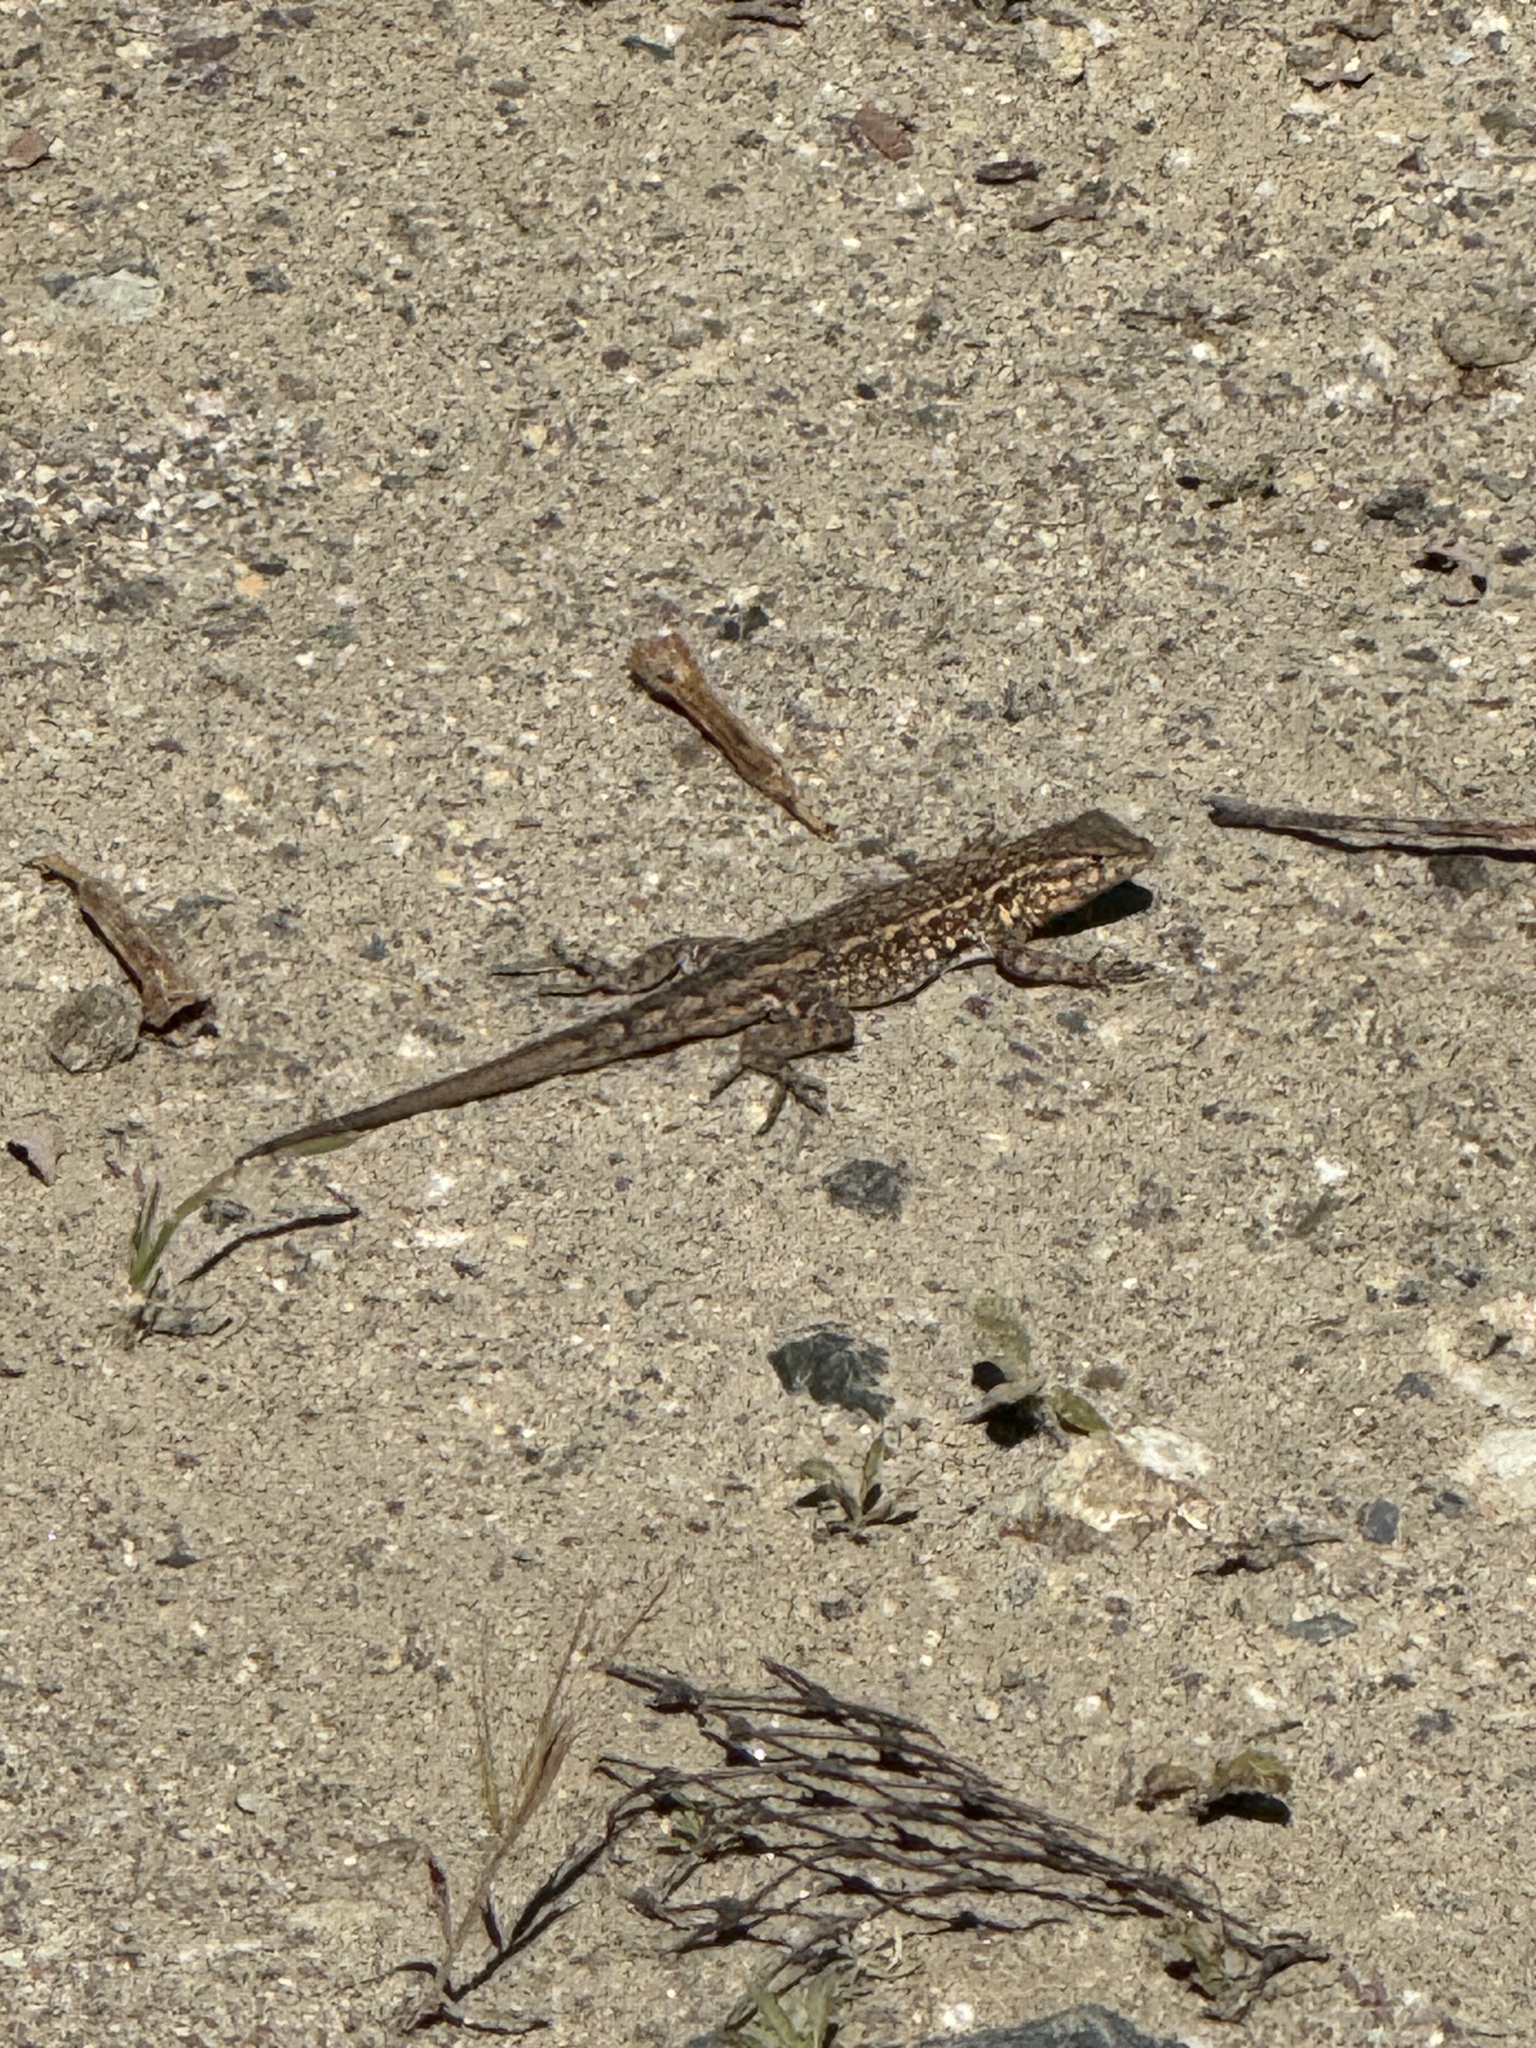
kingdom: Animalia
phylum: Chordata
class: Squamata
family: Phrynosomatidae
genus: Uta
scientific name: Uta stansburiana
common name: Side-blotched lizard
